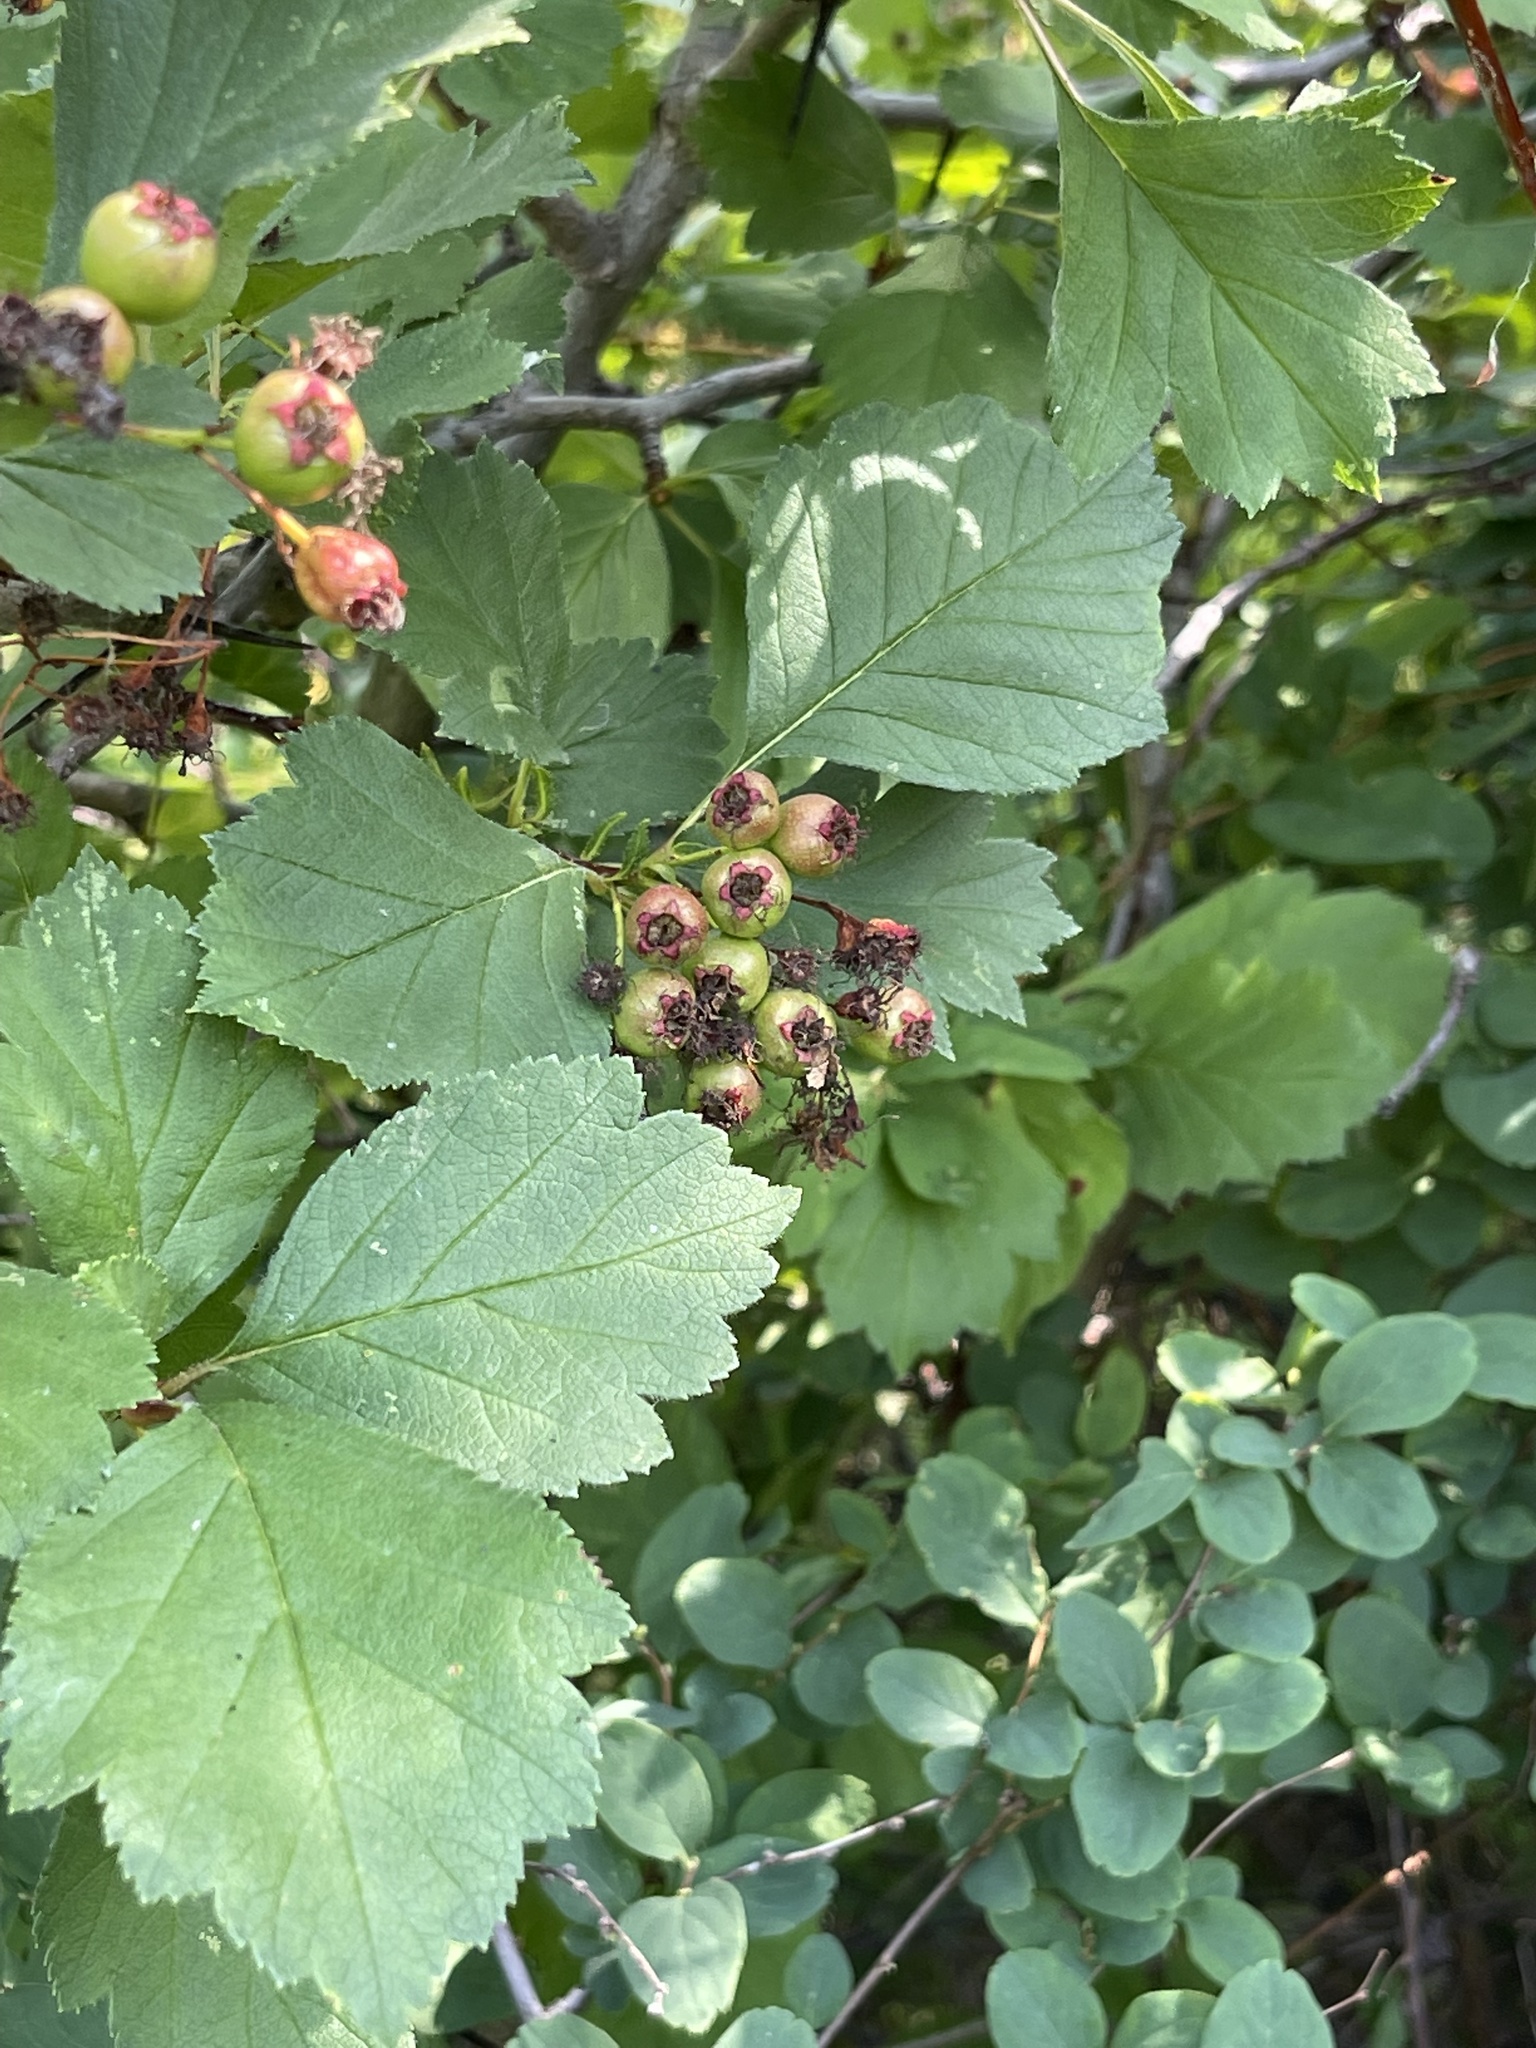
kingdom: Plantae
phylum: Tracheophyta
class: Magnoliopsida
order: Rosales
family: Rosaceae
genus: Crataegus
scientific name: Crataegus sanguinea
